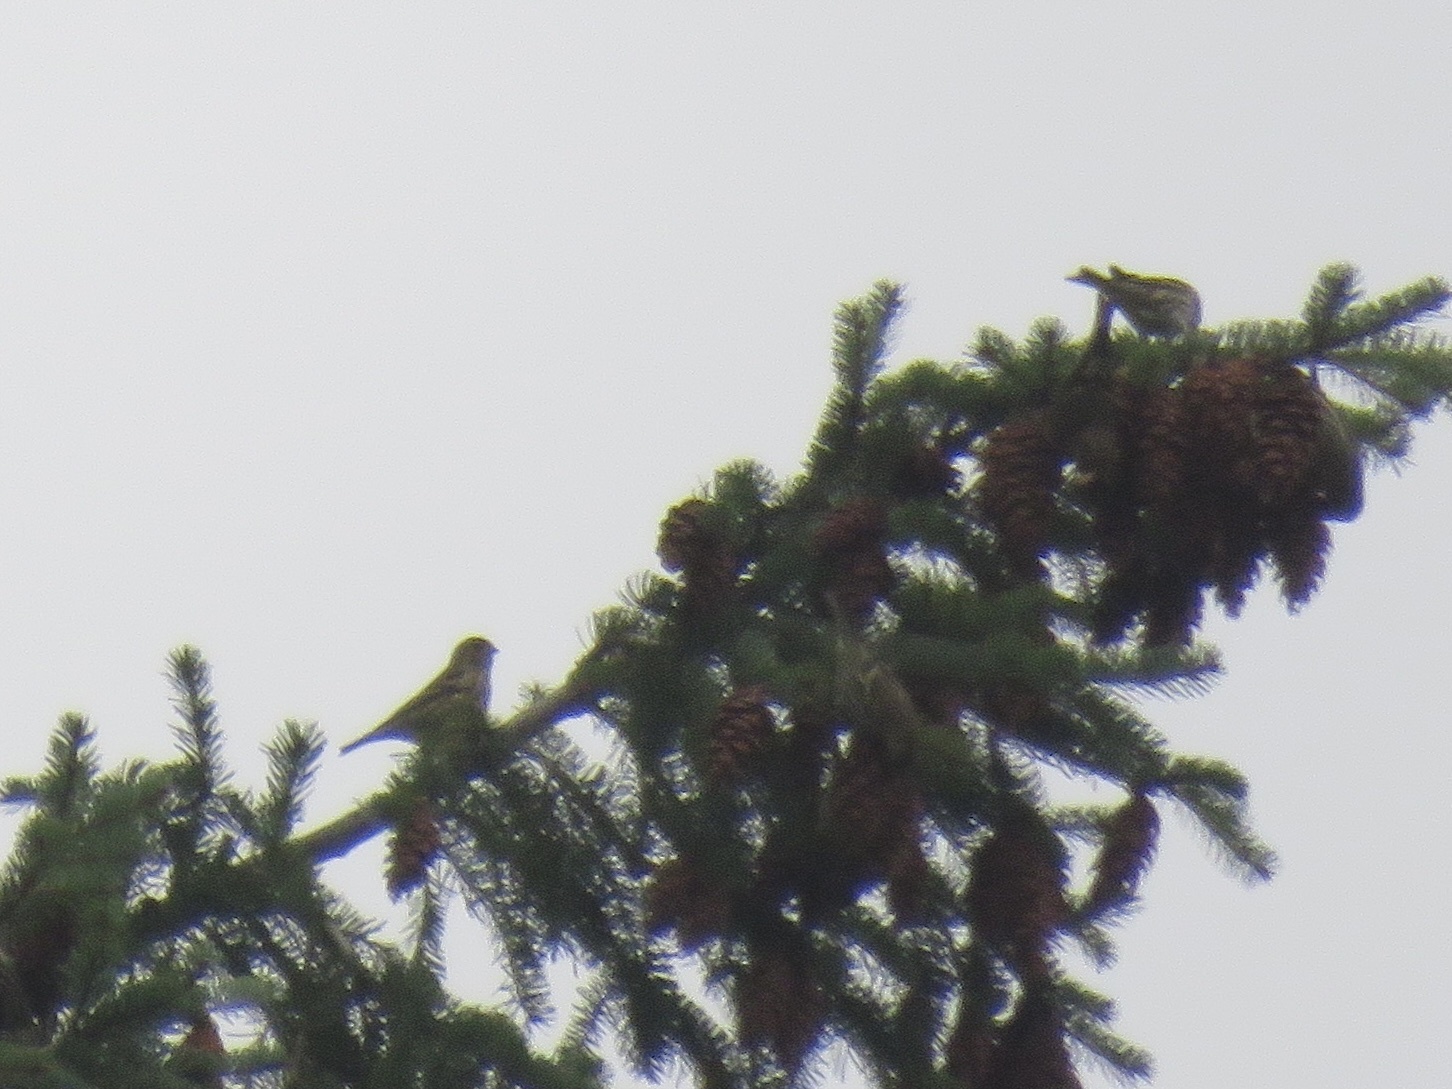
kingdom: Animalia
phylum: Chordata
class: Aves
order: Passeriformes
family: Fringillidae
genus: Spinus
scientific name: Spinus pinus
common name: Pine siskin
